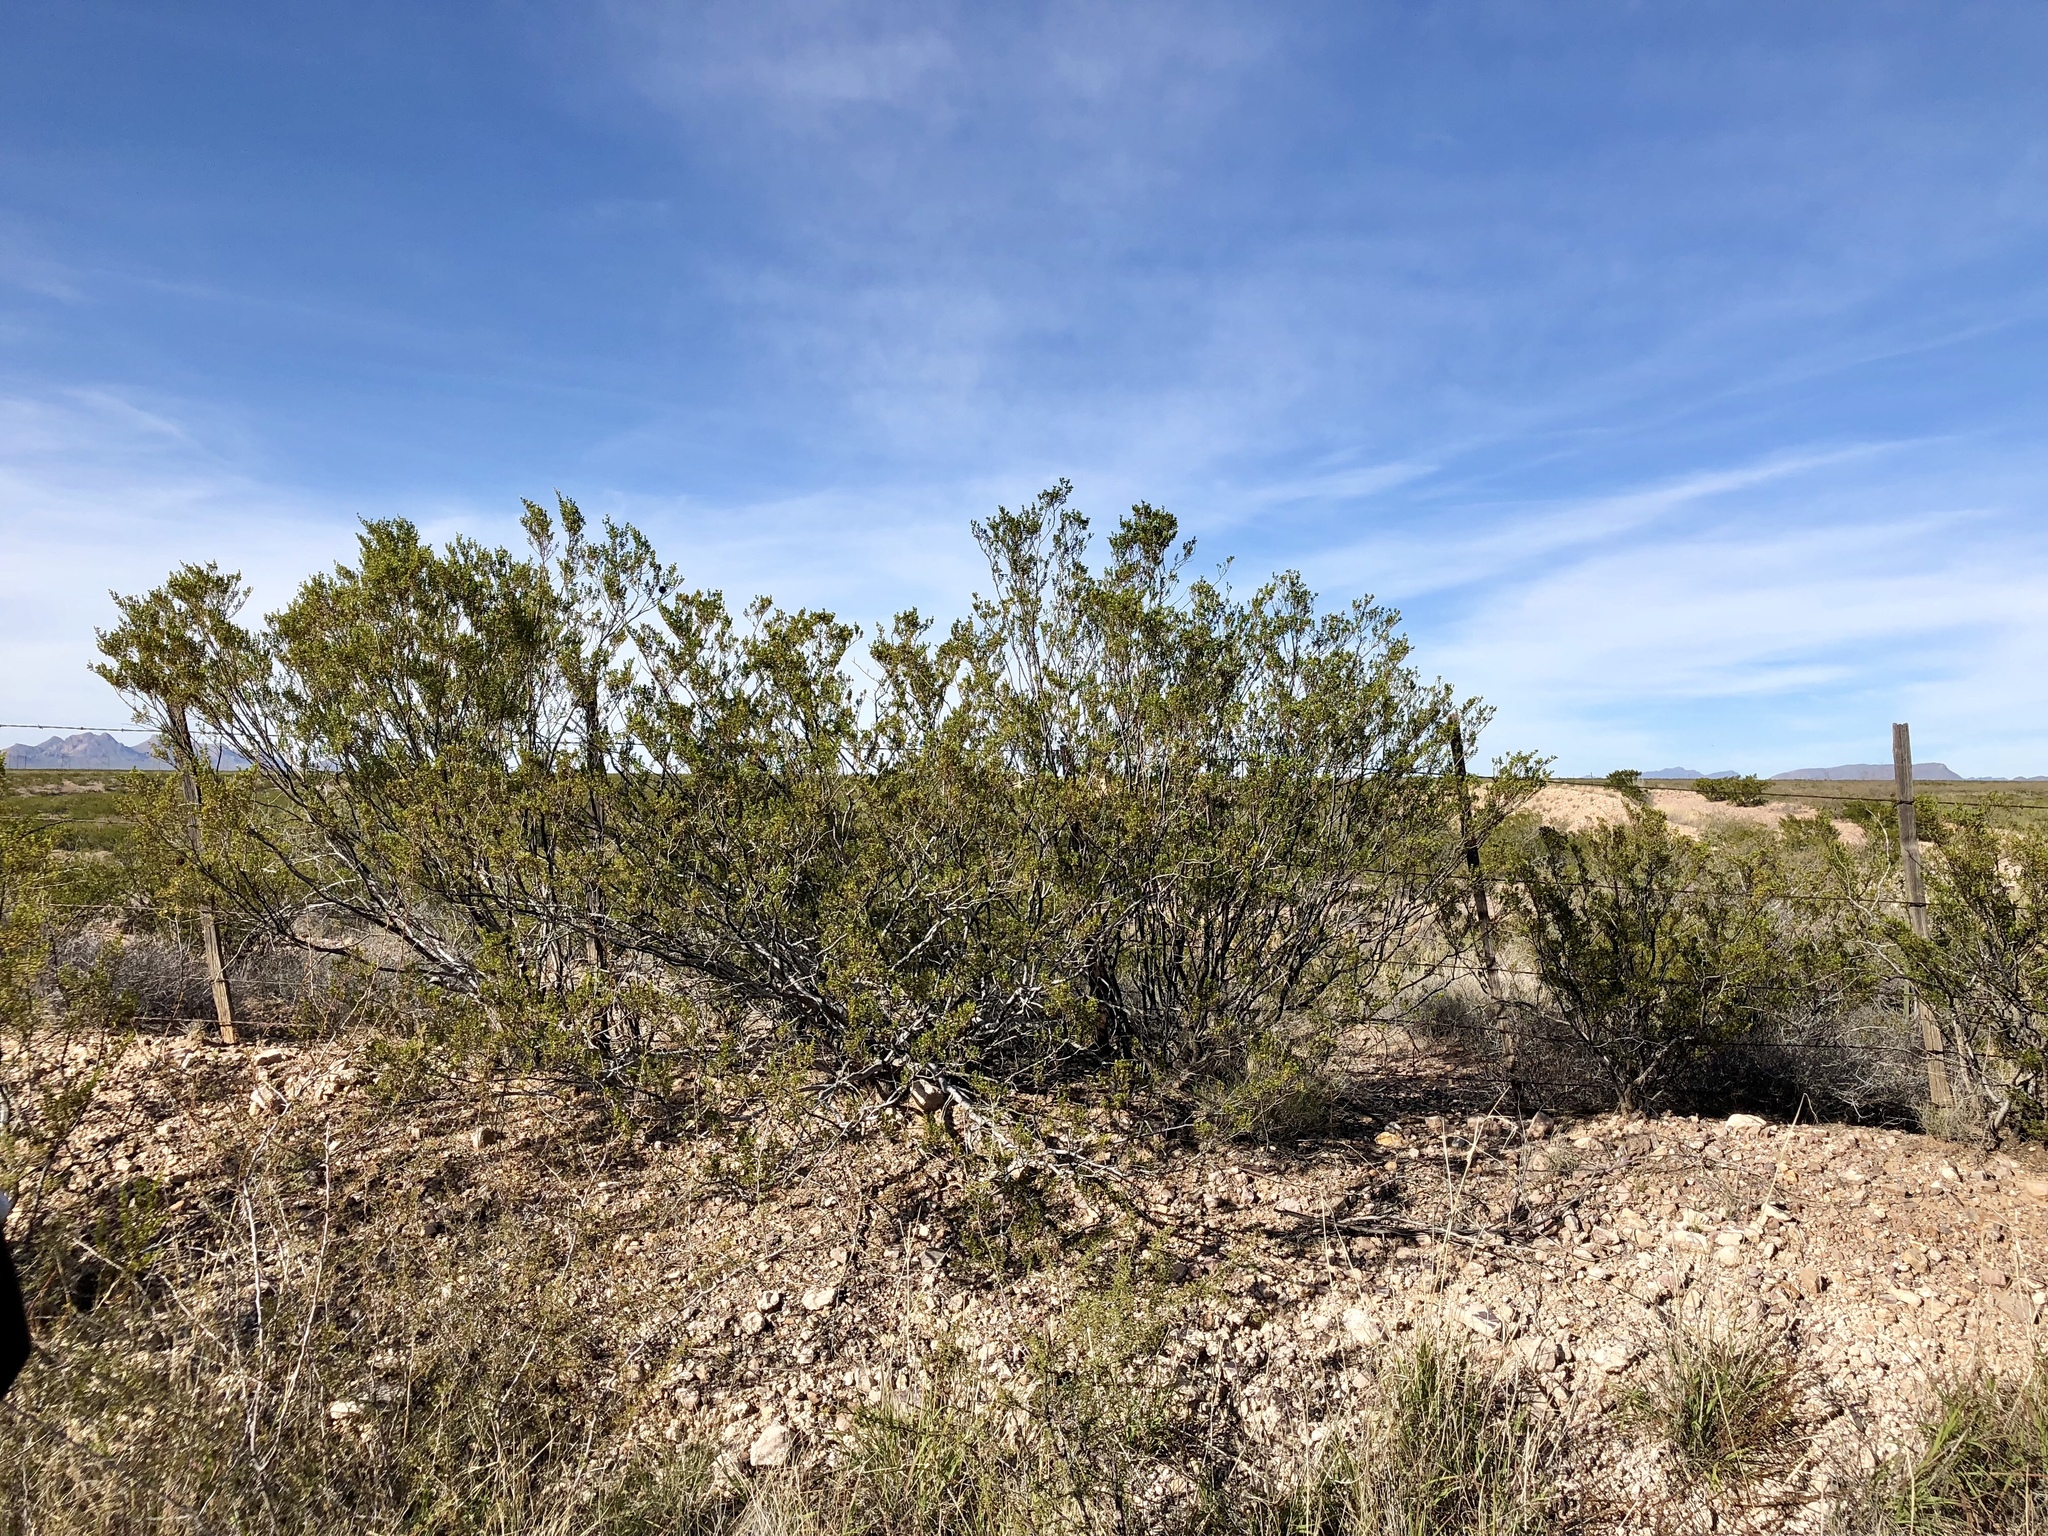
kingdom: Plantae
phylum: Tracheophyta
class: Magnoliopsida
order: Zygophyllales
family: Zygophyllaceae
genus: Larrea
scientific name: Larrea tridentata
